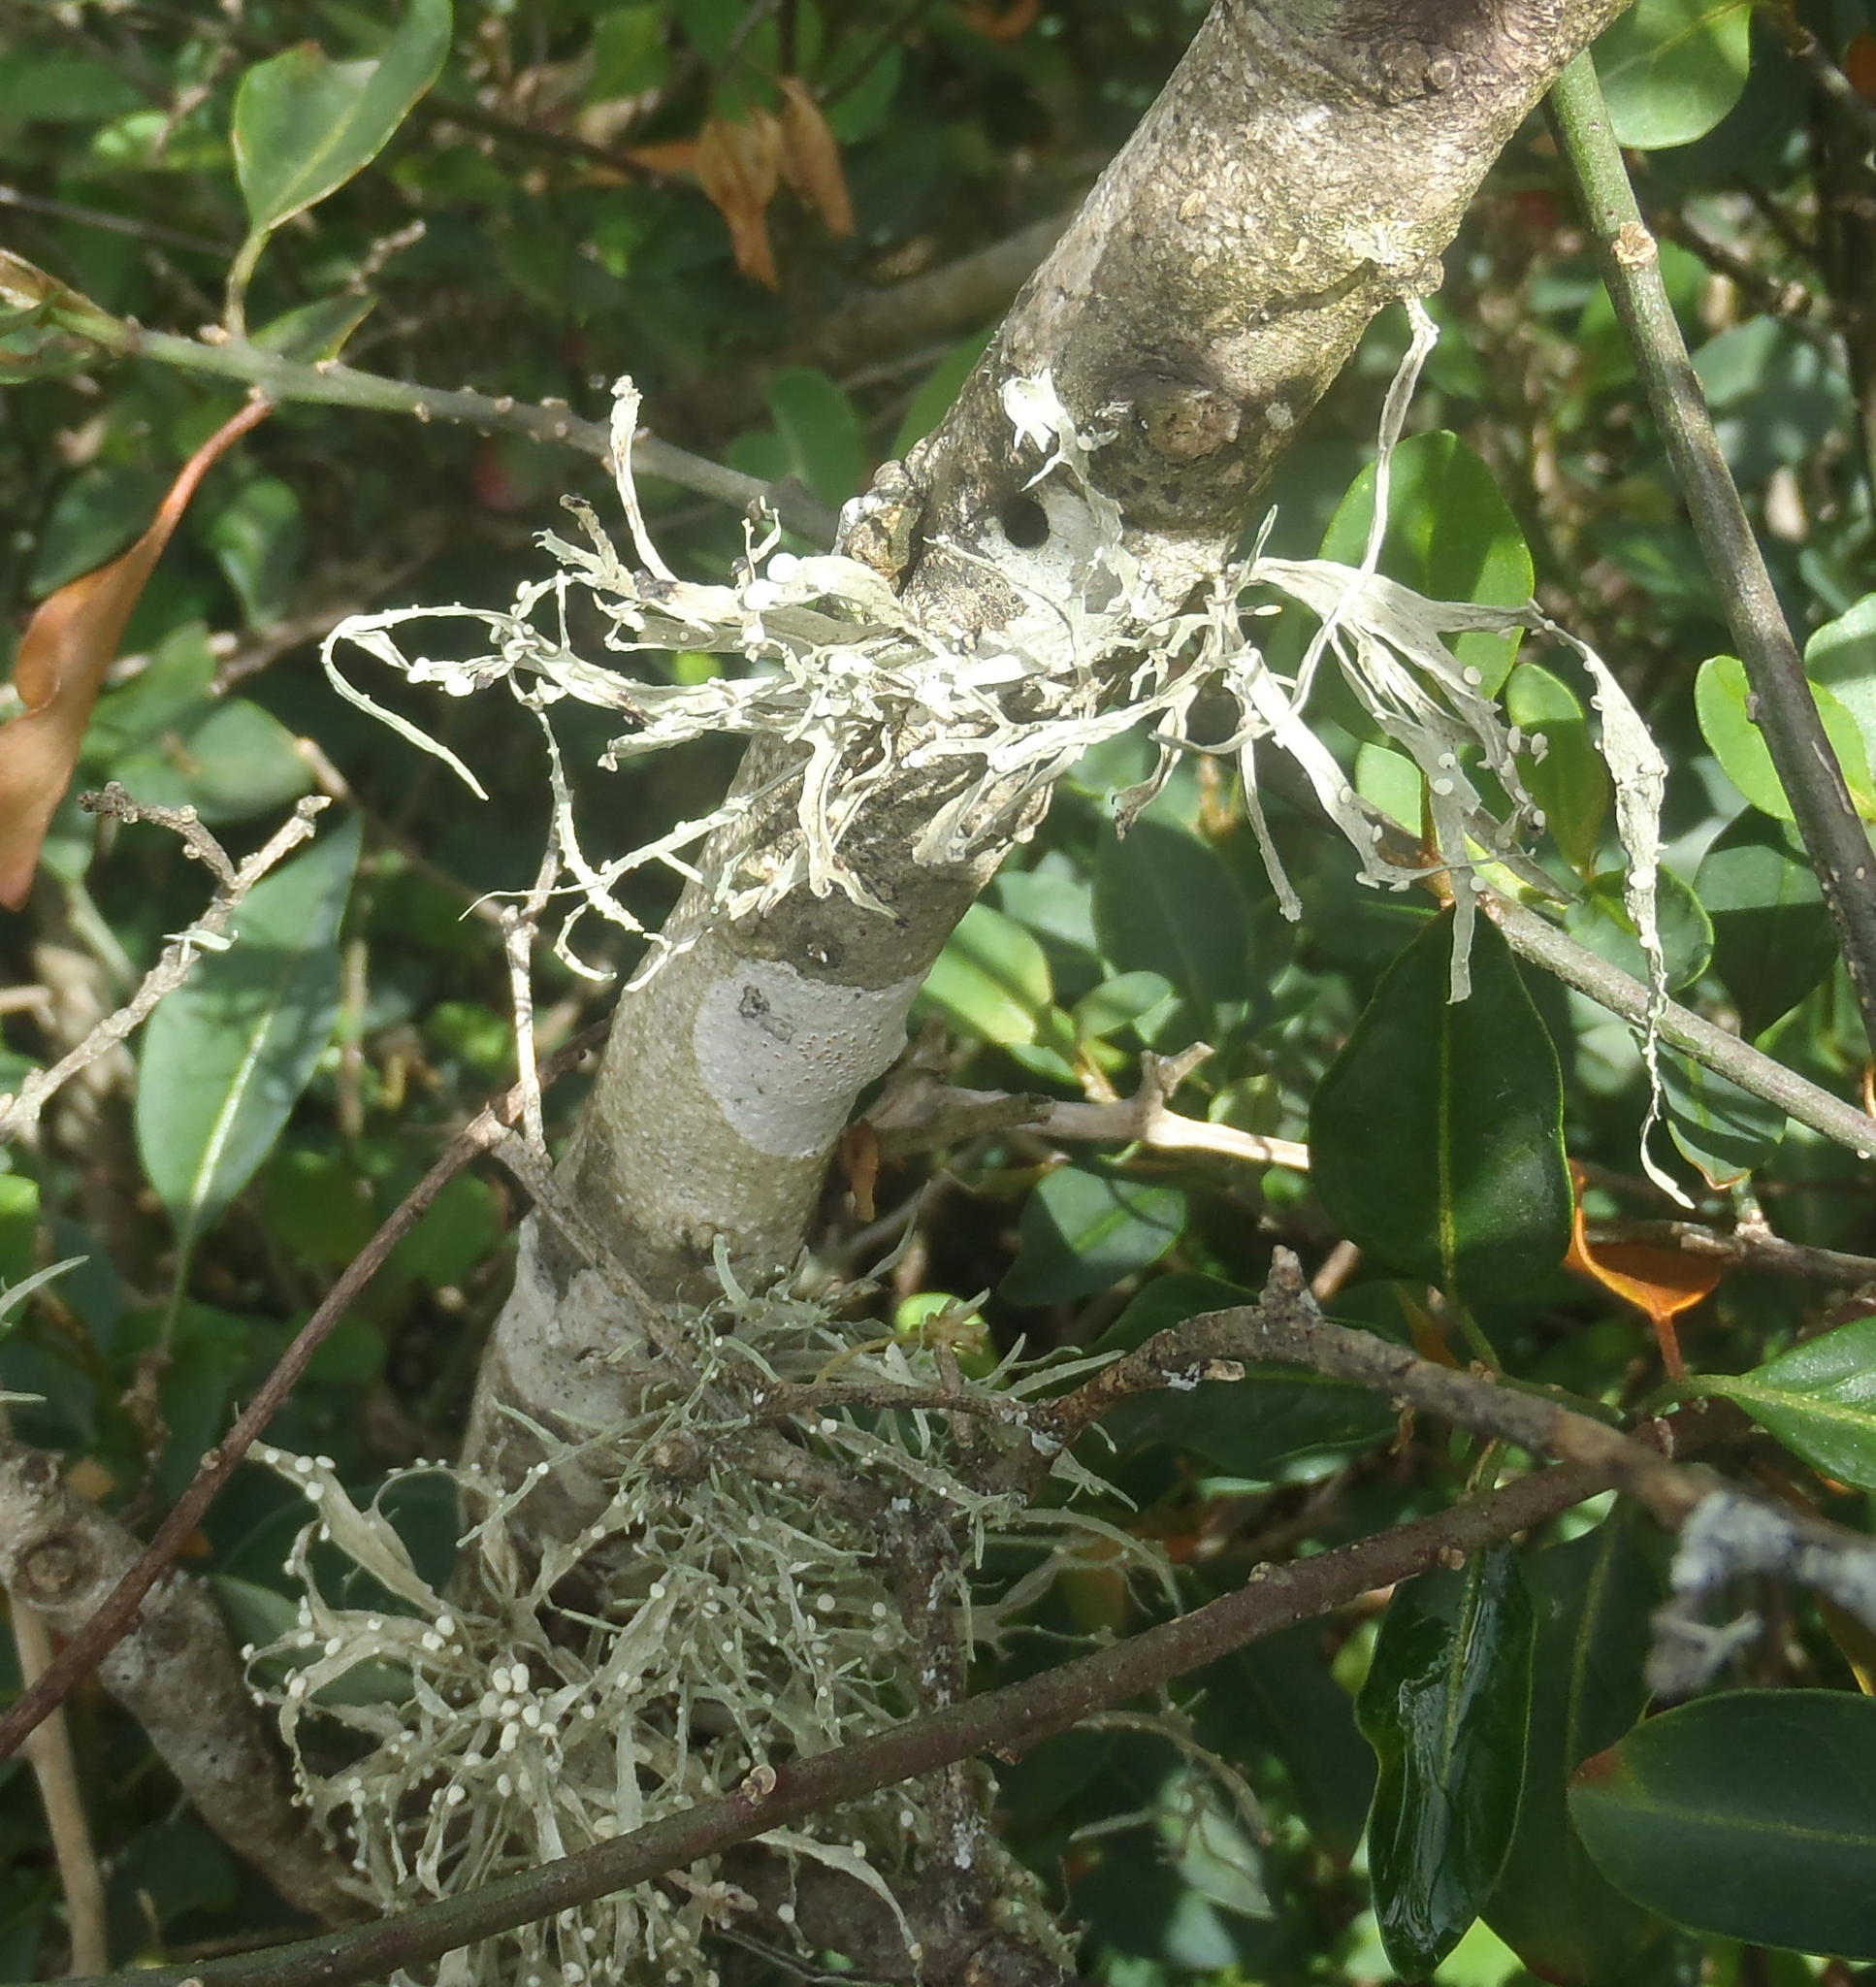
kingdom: Fungi
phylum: Ascomycota
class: Lecanoromycetes
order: Lecanorales
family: Ramalinaceae
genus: Ramalina
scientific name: Ramalina celastri
